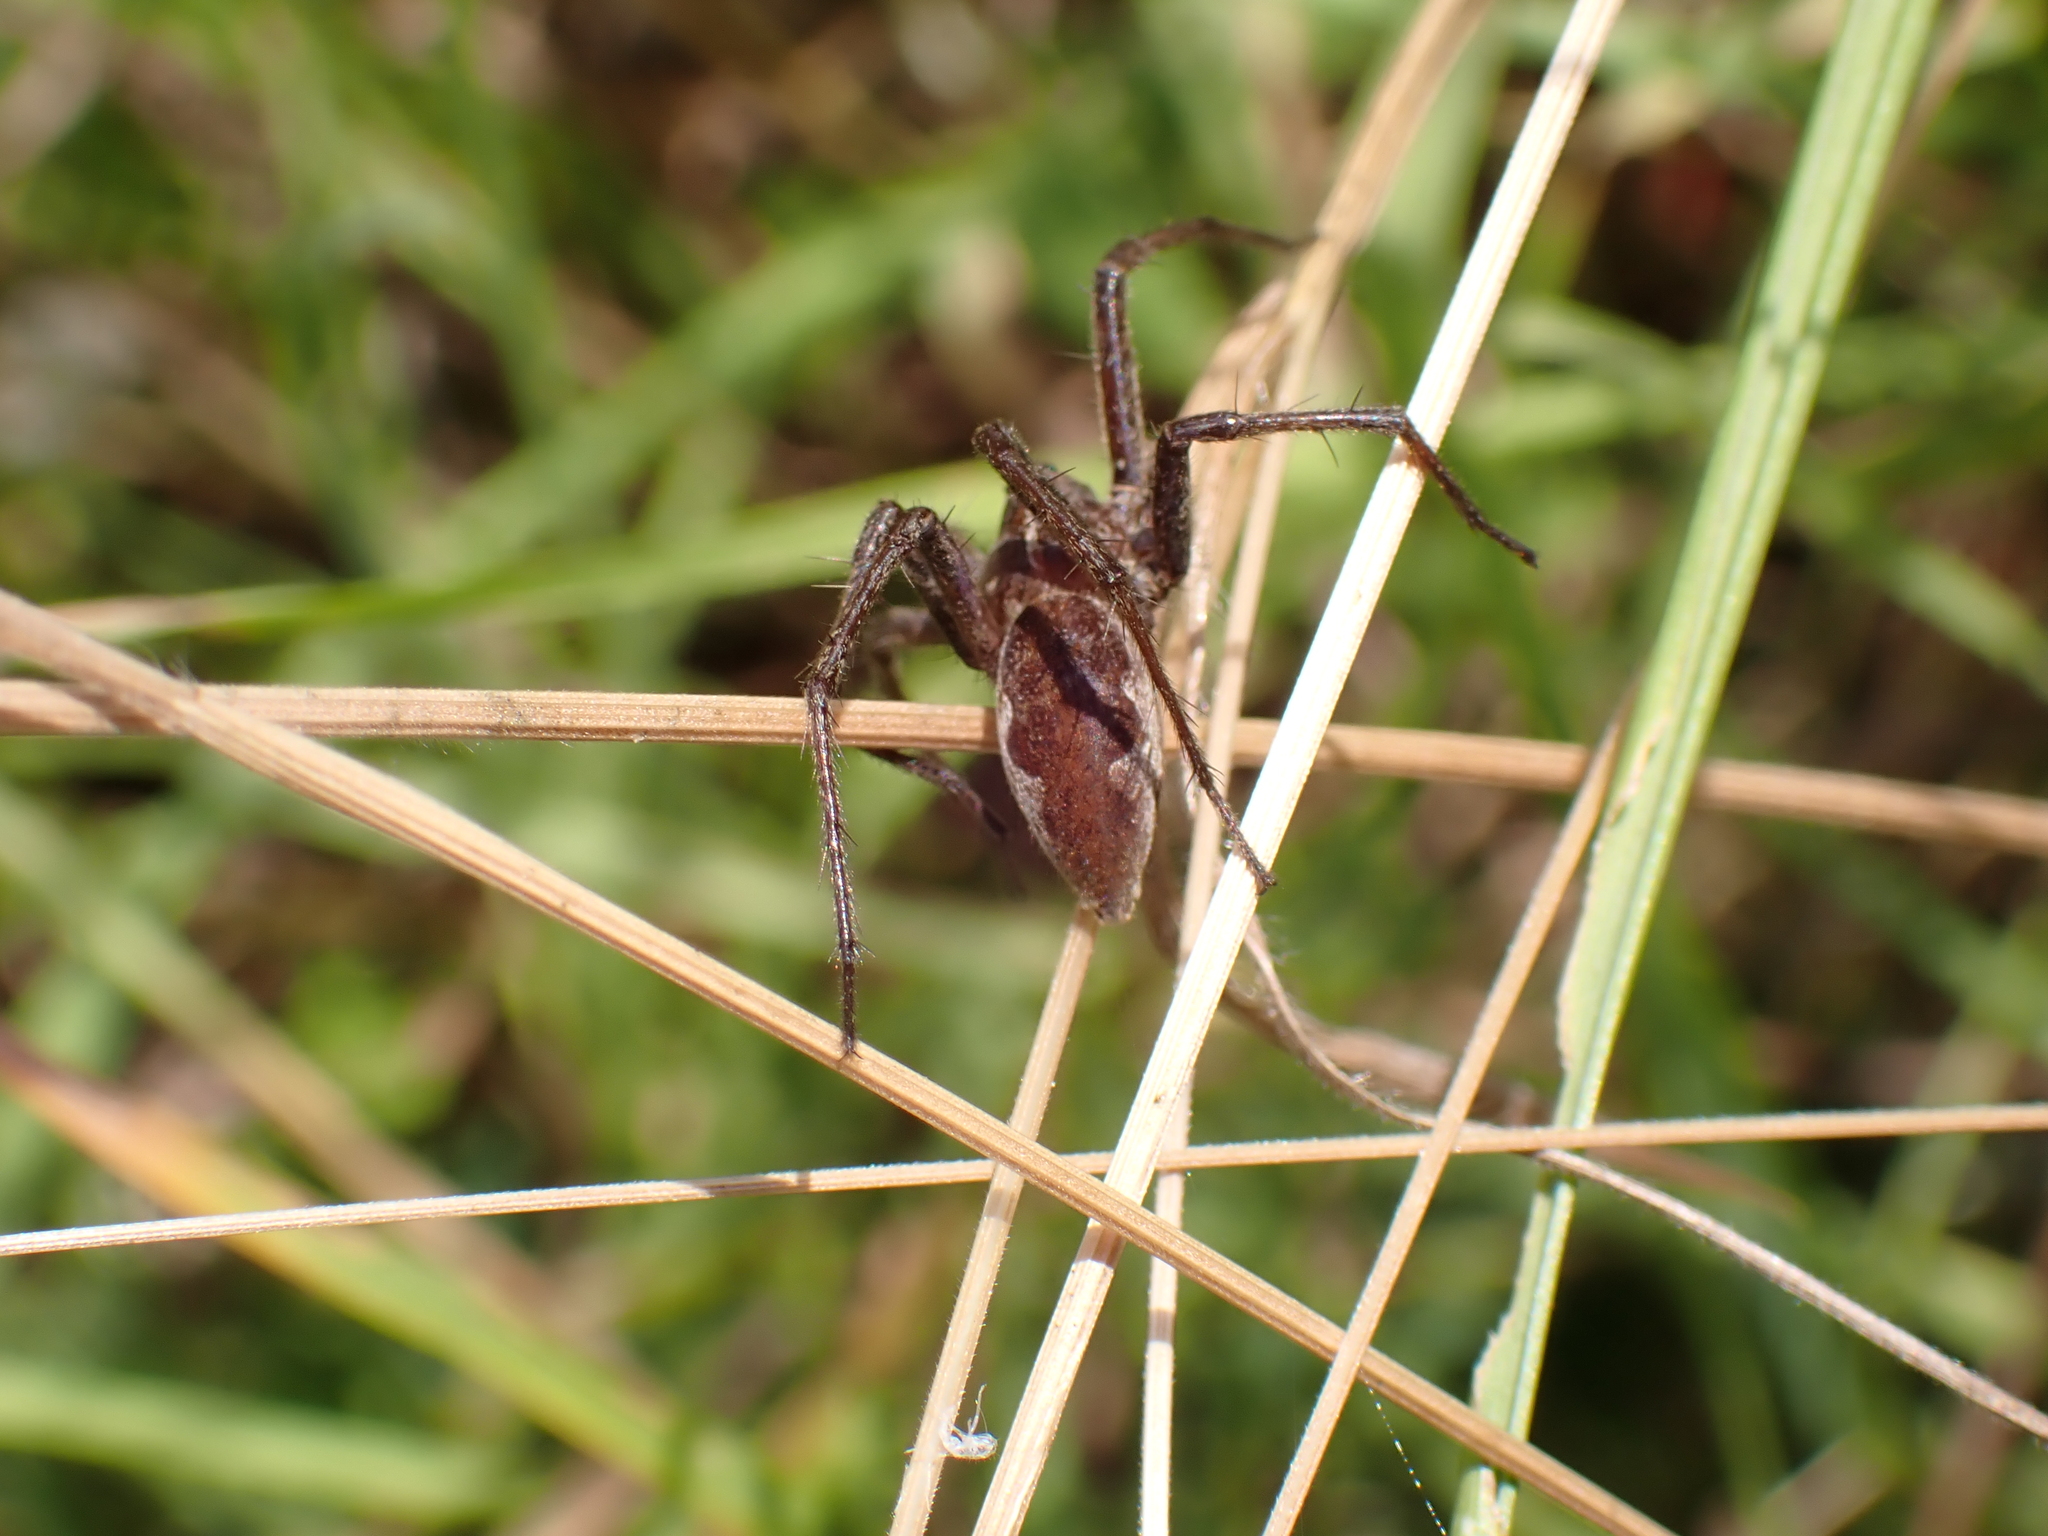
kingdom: Animalia
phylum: Arthropoda
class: Arachnida
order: Araneae
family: Pisauridae
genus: Pisaura
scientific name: Pisaura mirabilis
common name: Tent spider
